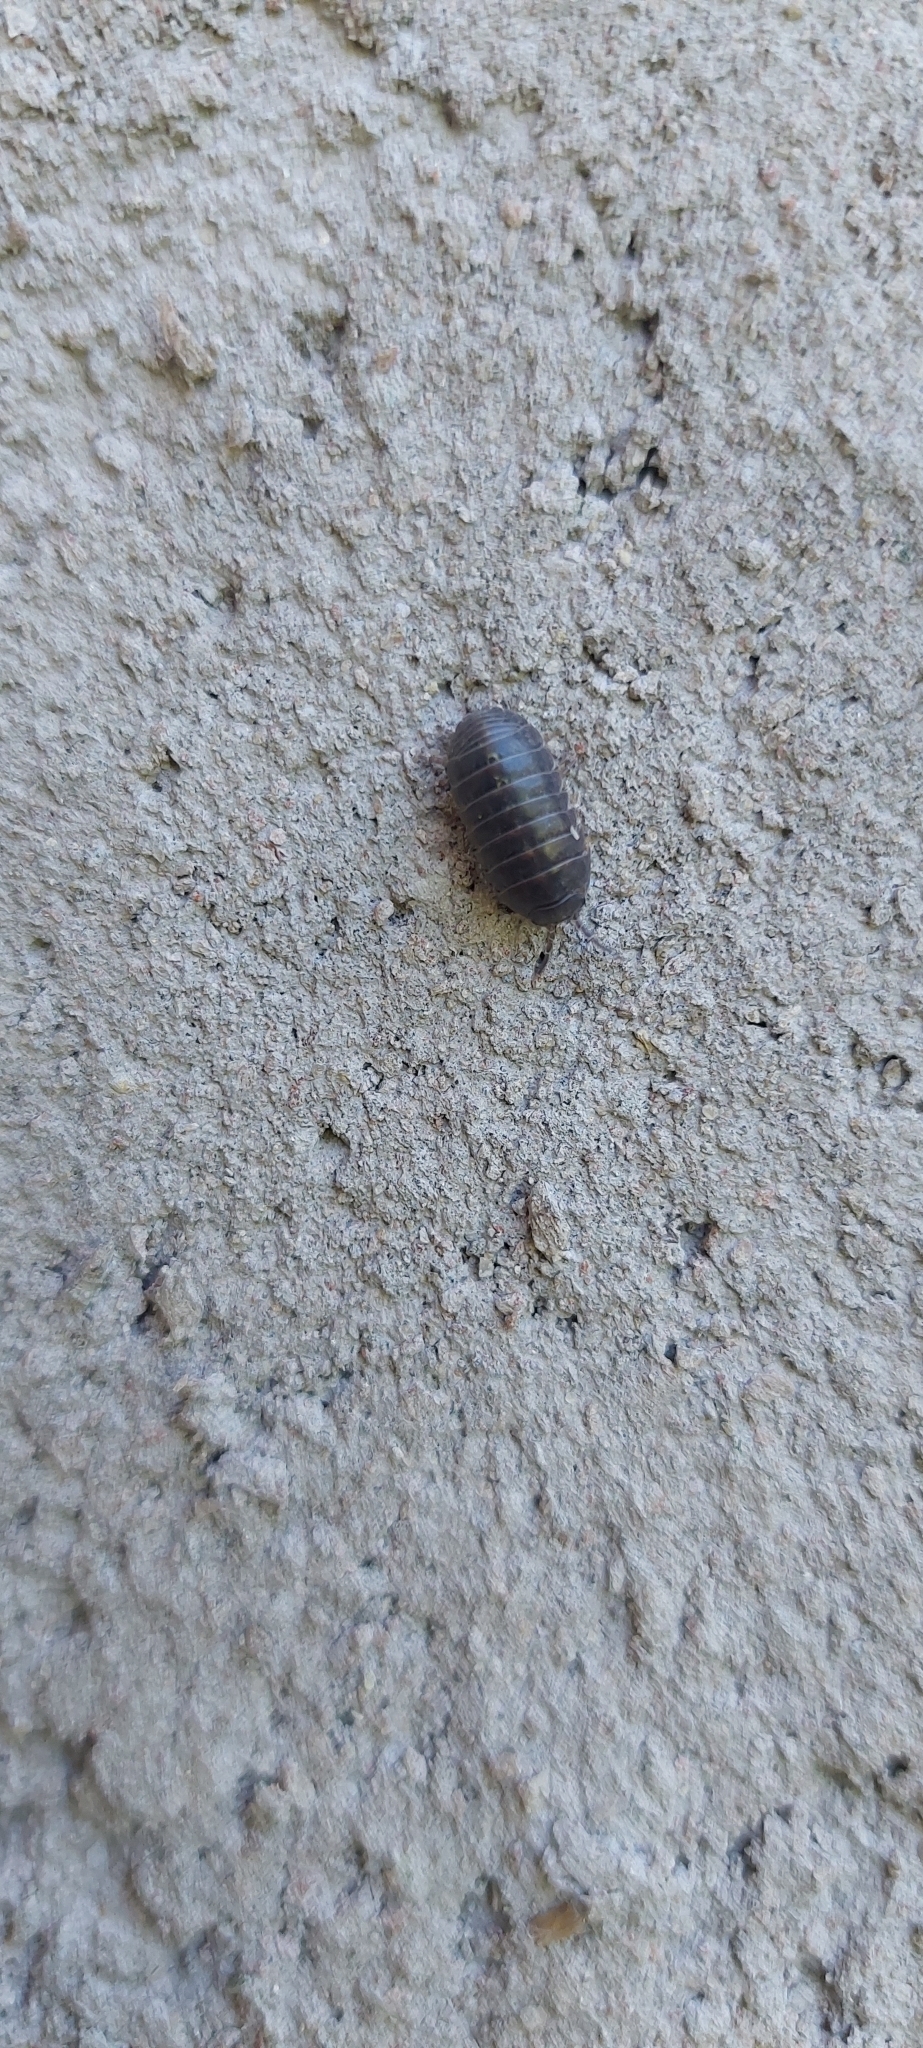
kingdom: Animalia
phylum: Arthropoda
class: Malacostraca
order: Isopoda
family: Armadillidiidae
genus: Armadillidium
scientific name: Armadillidium vulgare
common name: Common pill woodlouse
